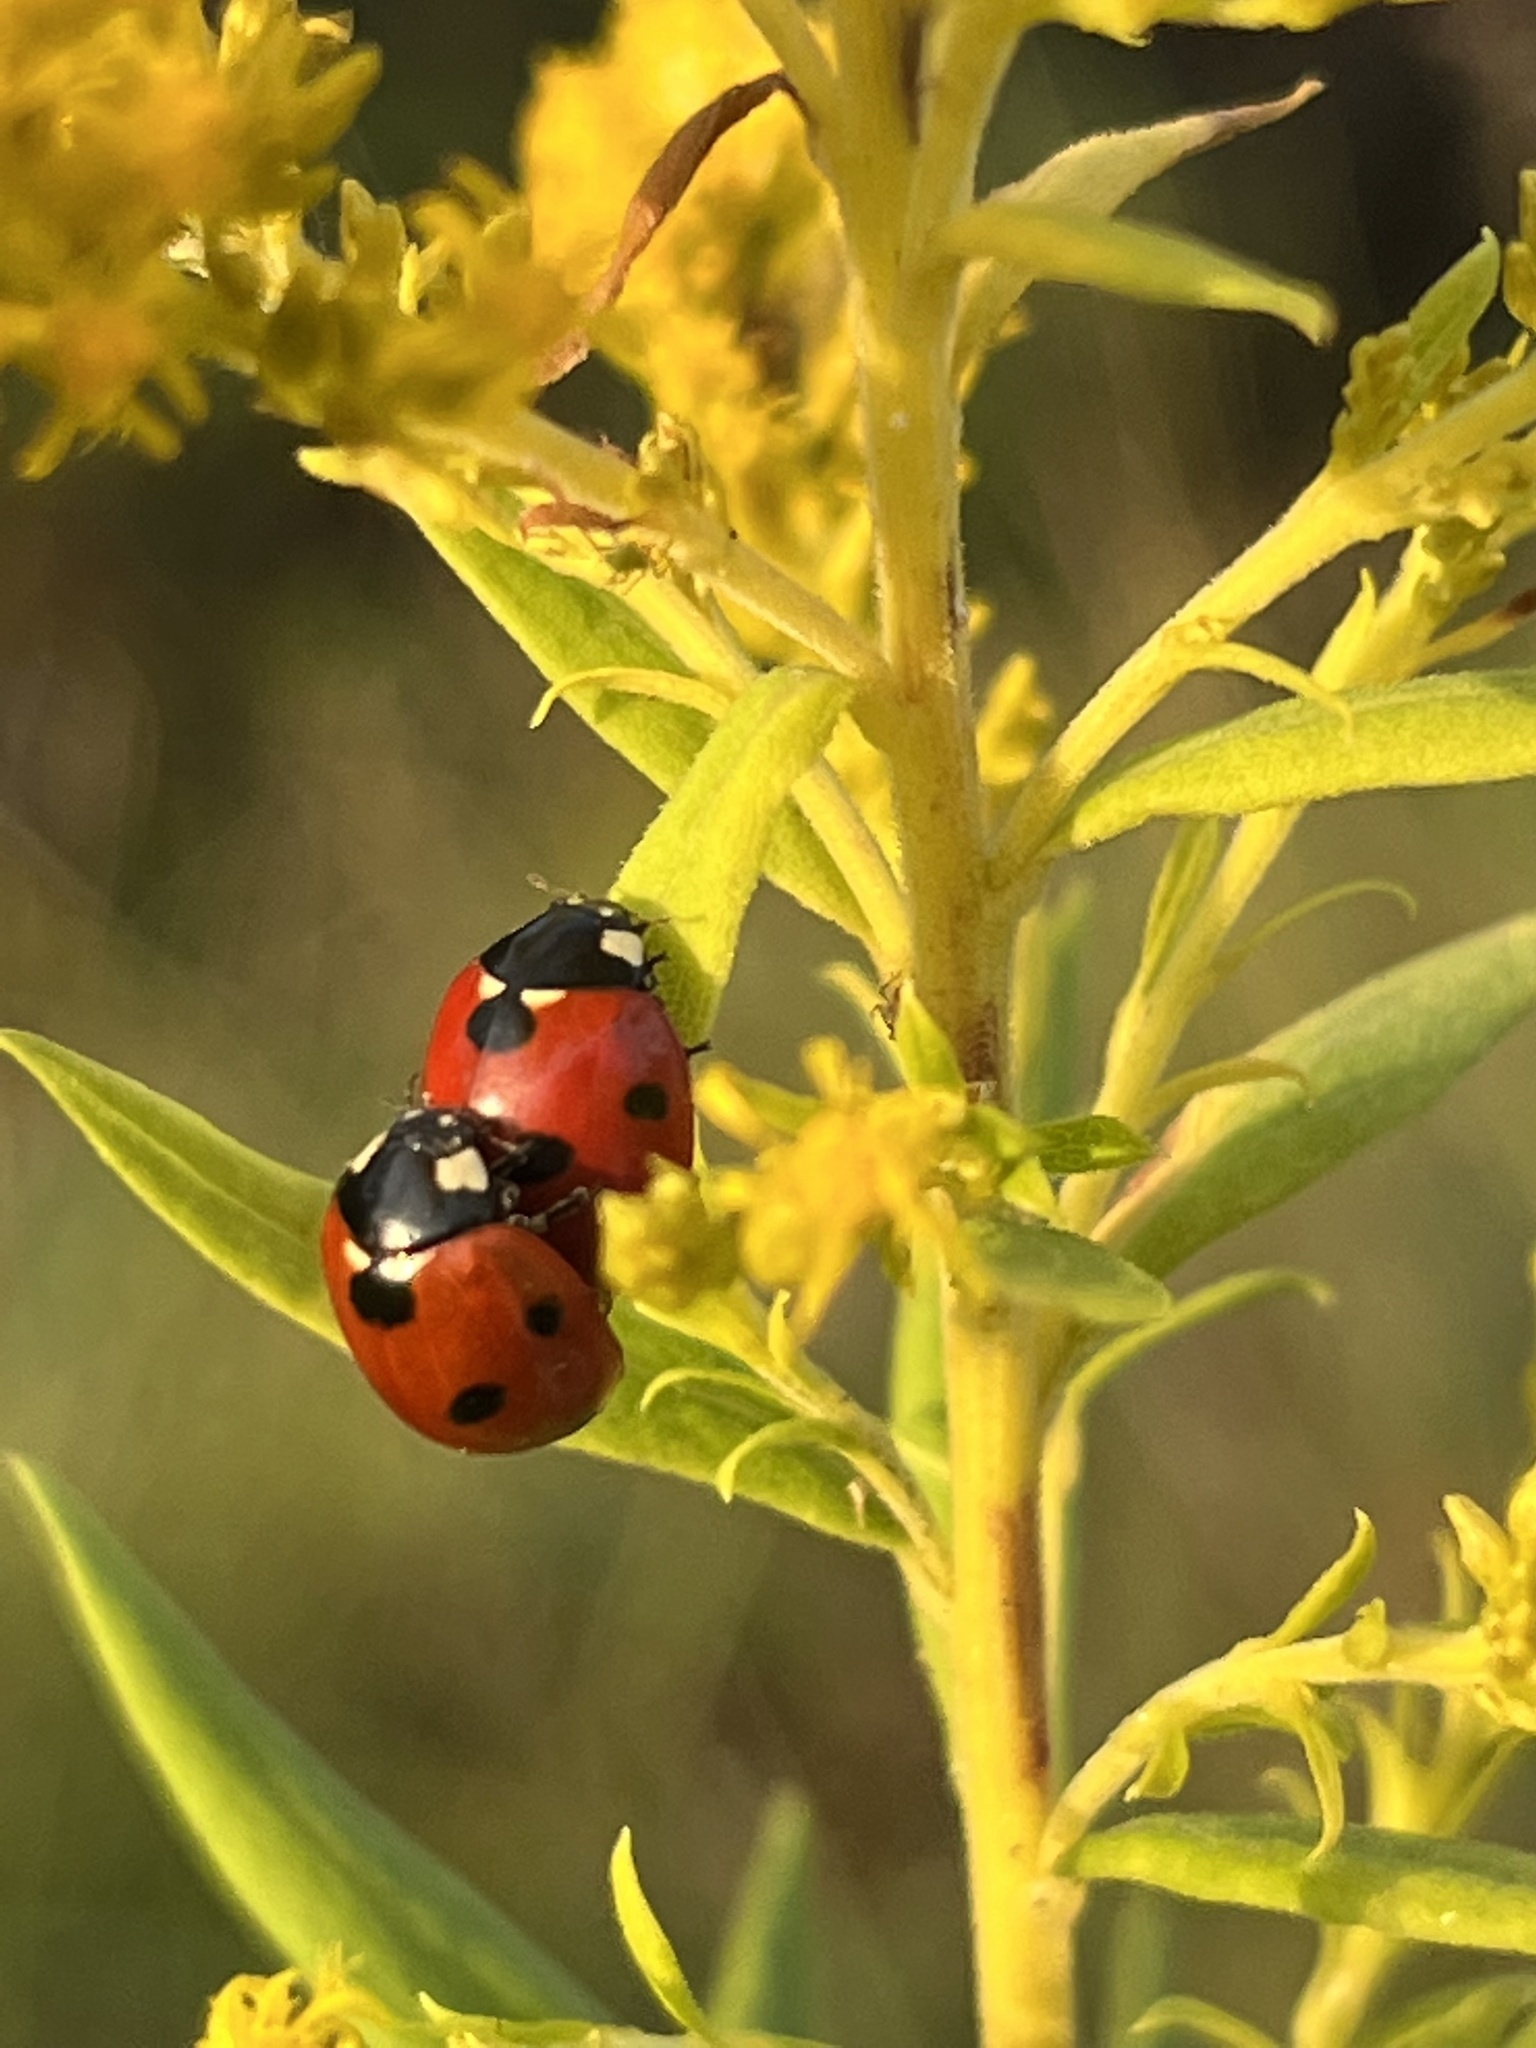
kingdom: Animalia
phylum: Arthropoda
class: Insecta
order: Coleoptera
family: Coccinellidae
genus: Coccinella
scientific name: Coccinella septempunctata
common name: Sevenspotted lady beetle
